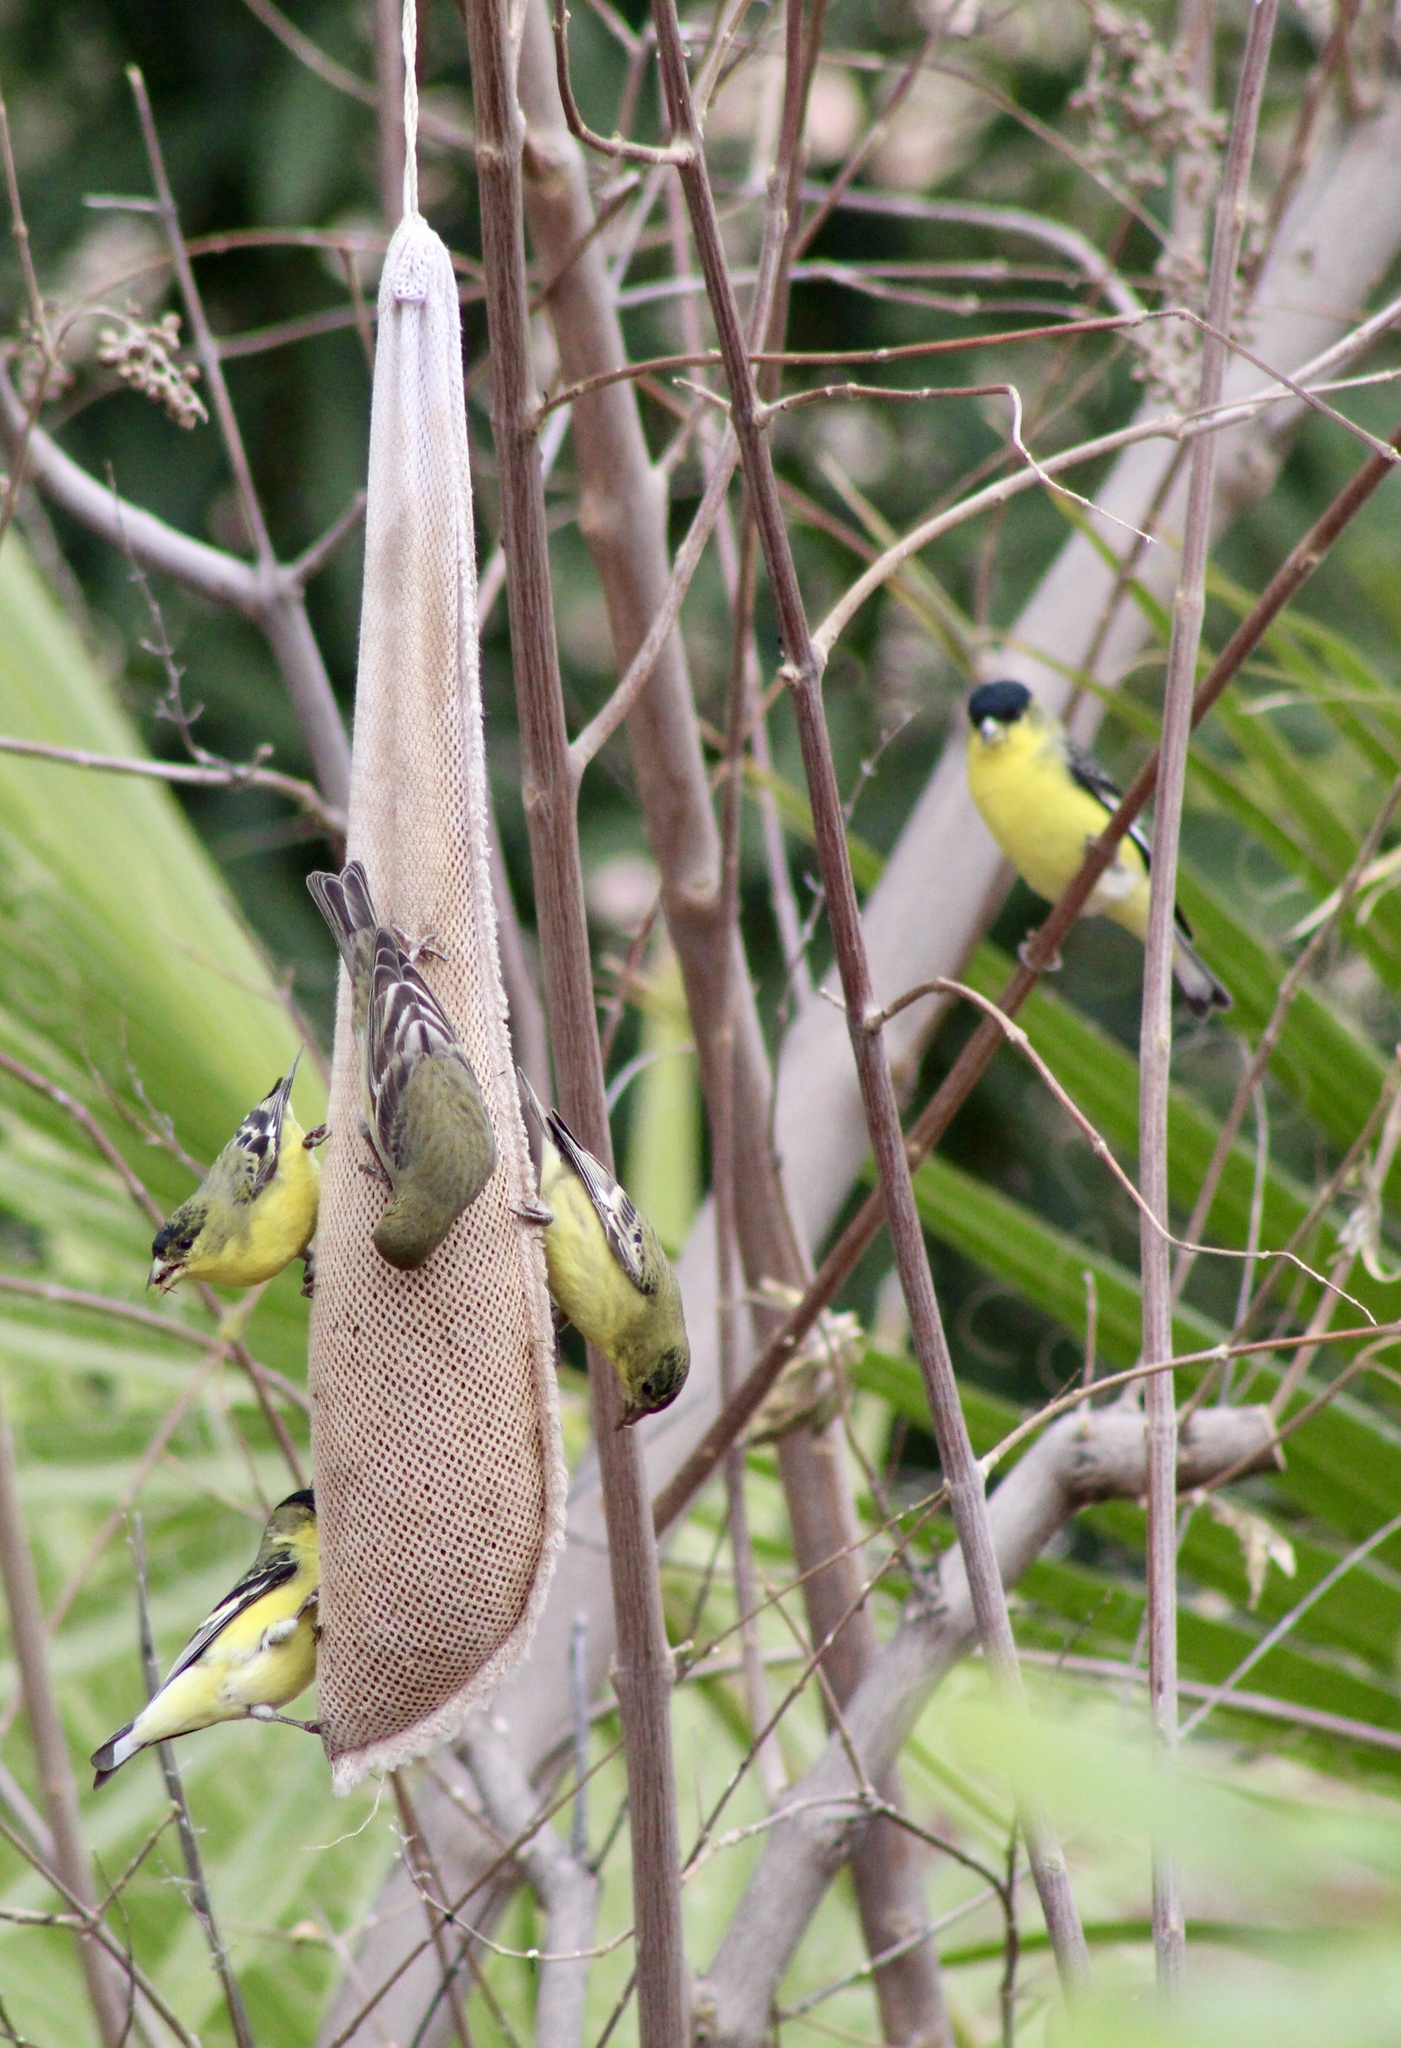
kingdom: Animalia
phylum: Chordata
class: Aves
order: Passeriformes
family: Fringillidae
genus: Spinus
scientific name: Spinus psaltria
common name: Lesser goldfinch
